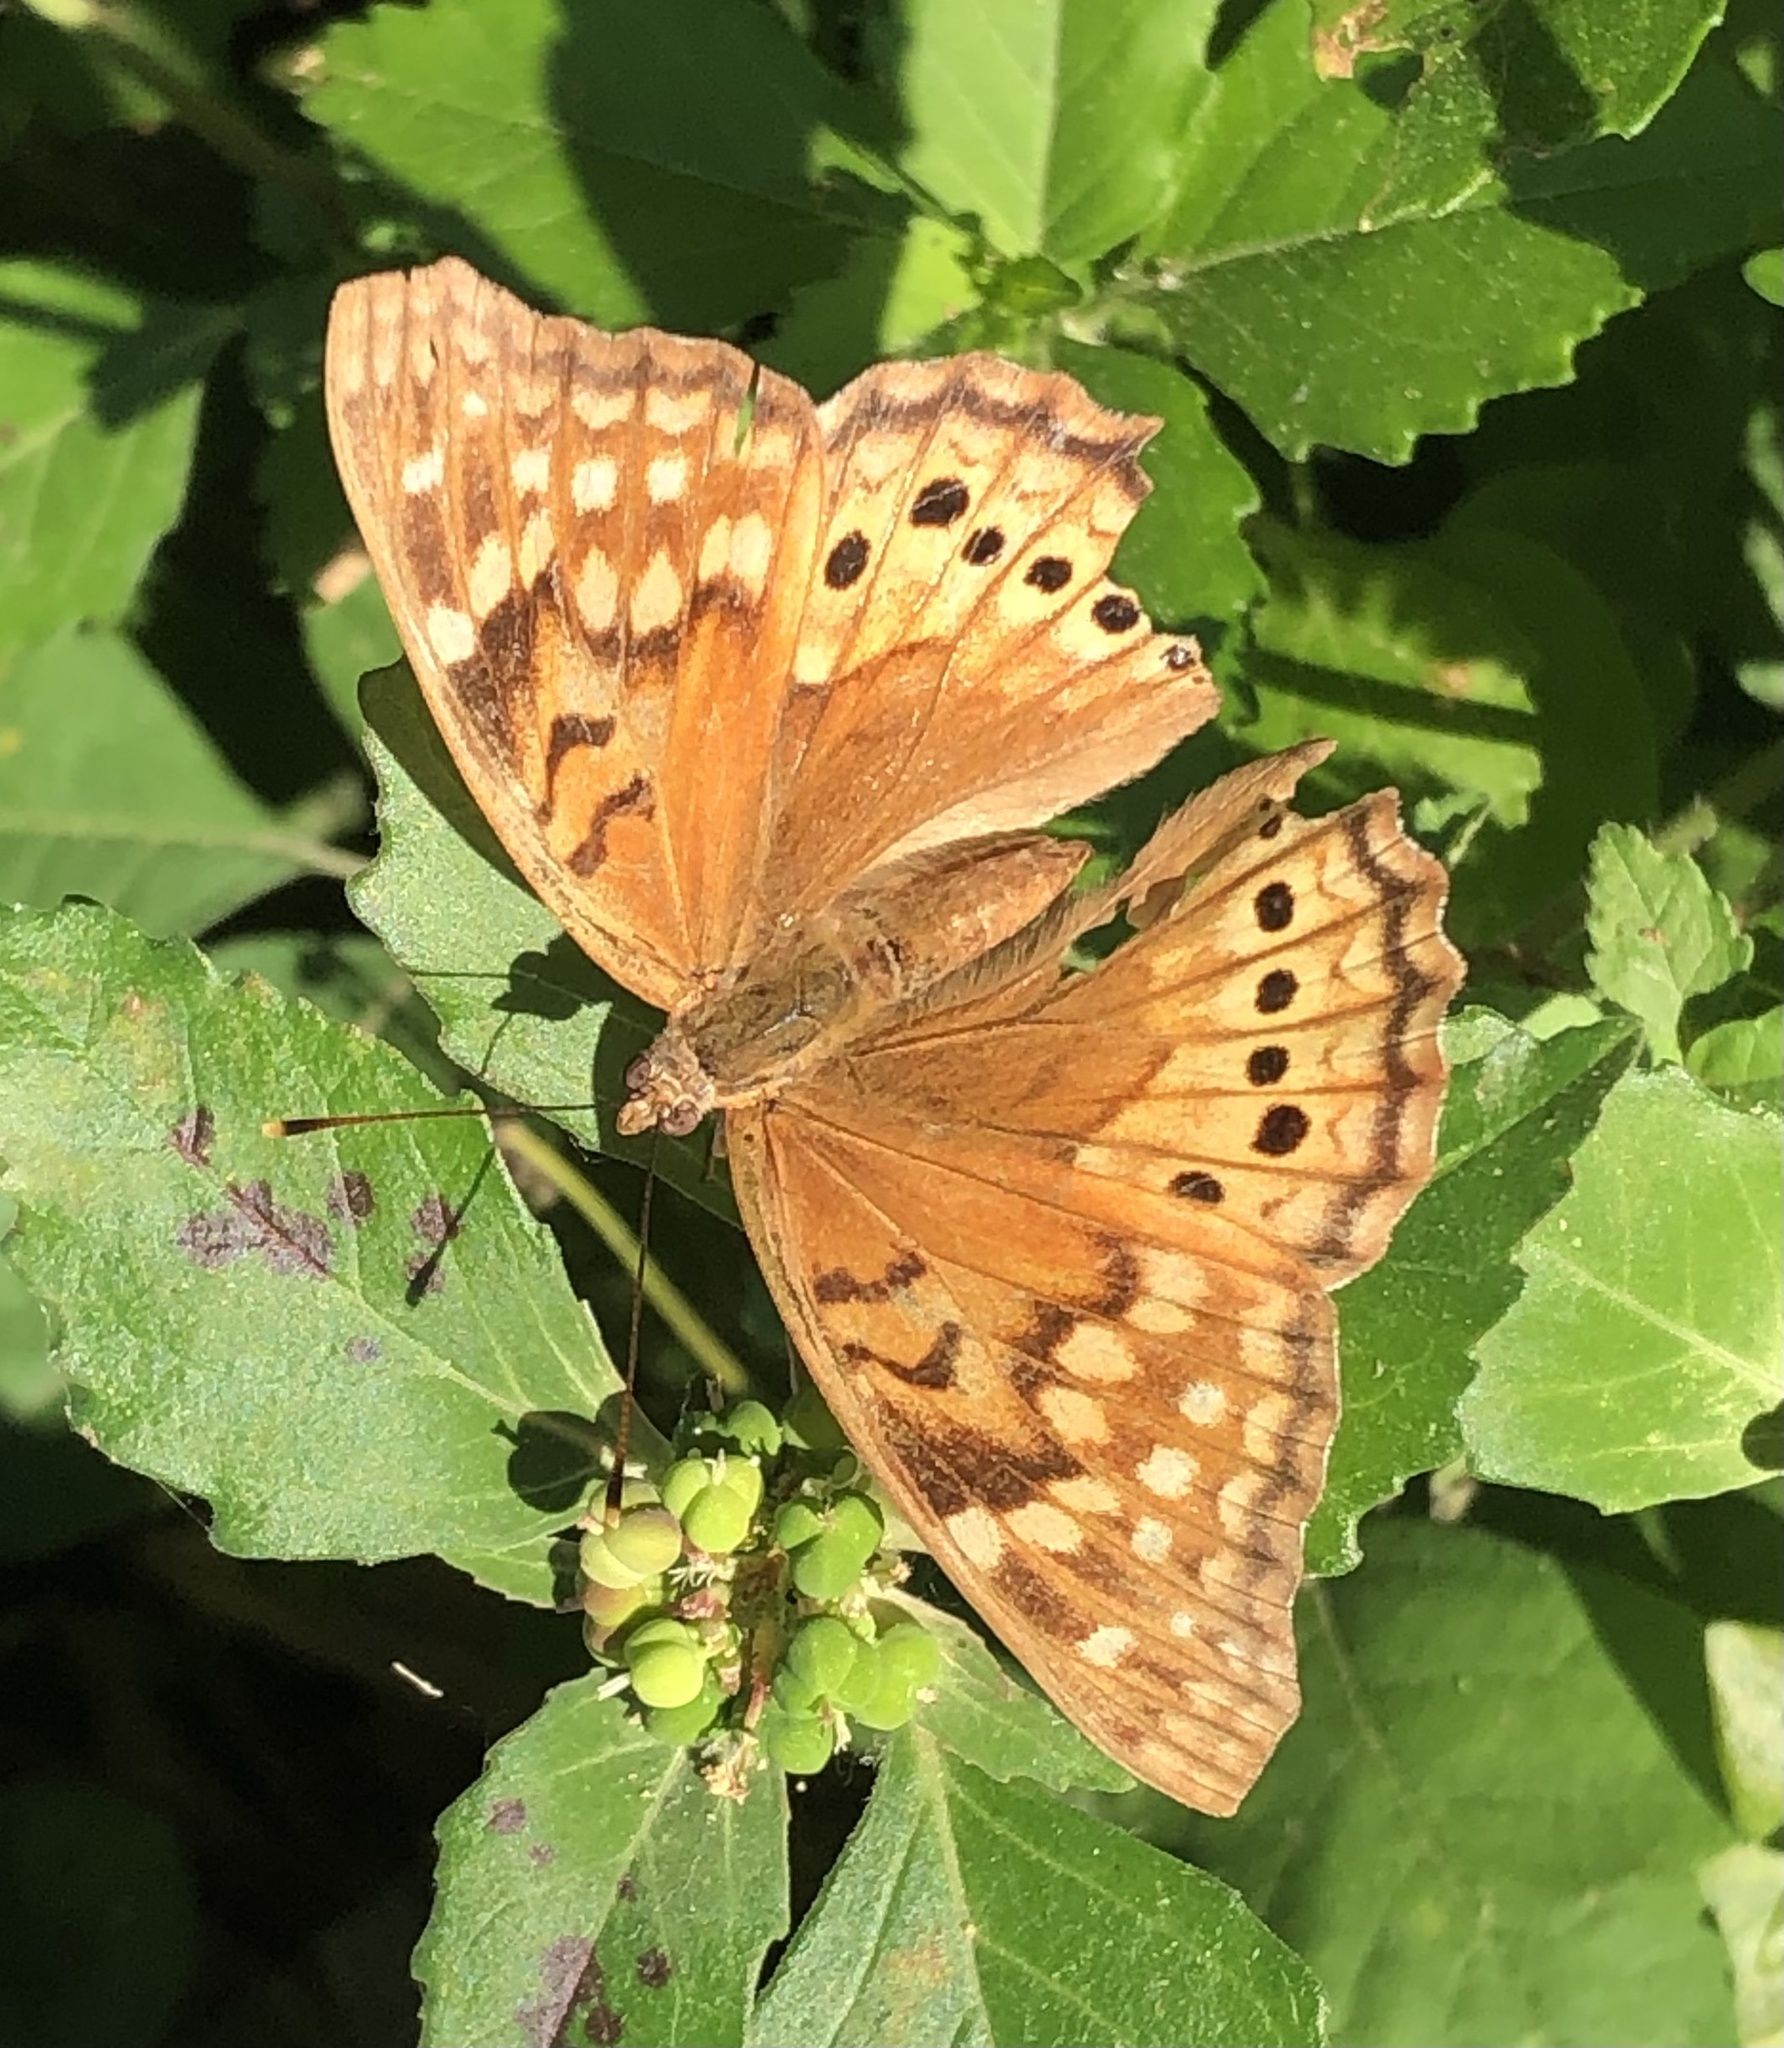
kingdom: Animalia
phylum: Arthropoda
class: Insecta
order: Lepidoptera
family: Nymphalidae
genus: Asterocampa
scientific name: Asterocampa clyton
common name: Tawny emperor
